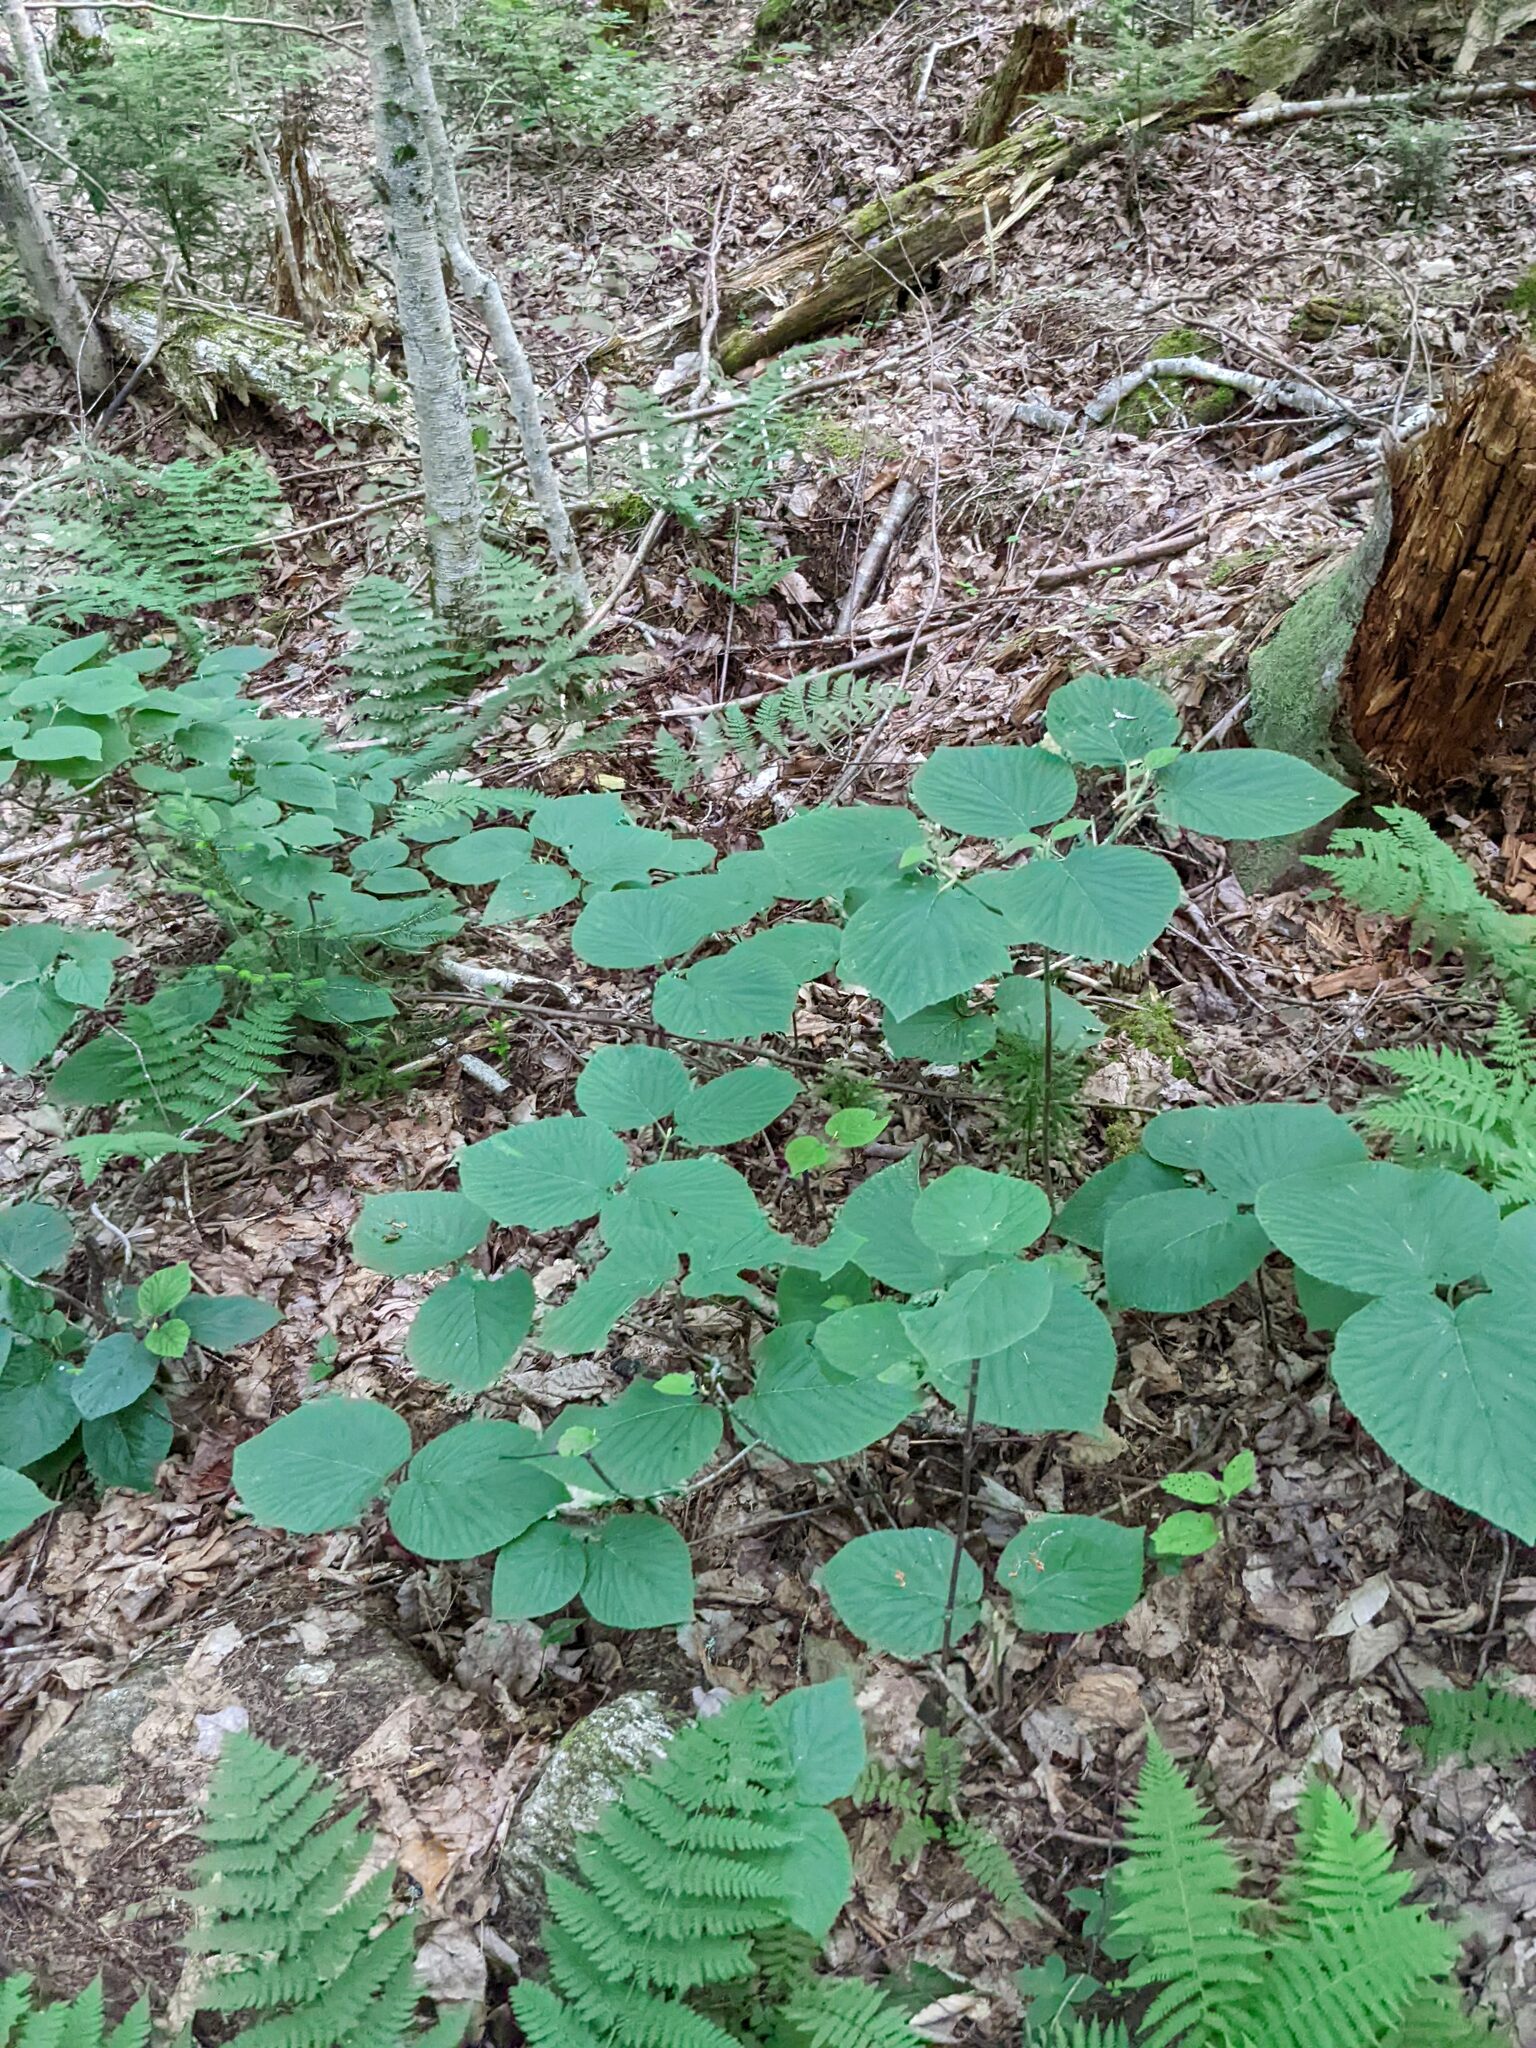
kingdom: Plantae
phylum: Tracheophyta
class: Magnoliopsida
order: Dipsacales
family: Viburnaceae
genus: Viburnum
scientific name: Viburnum lantanoides
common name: Hobblebush
